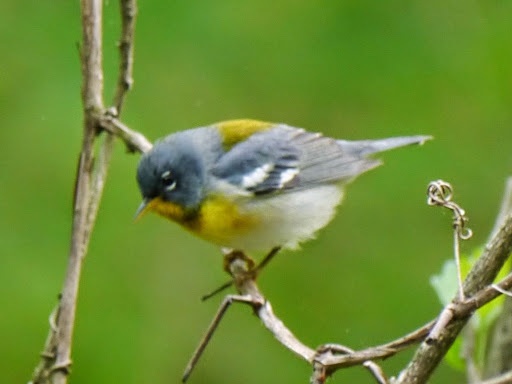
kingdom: Animalia
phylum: Chordata
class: Aves
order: Passeriformes
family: Parulidae
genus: Setophaga
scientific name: Setophaga americana
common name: Northern parula
